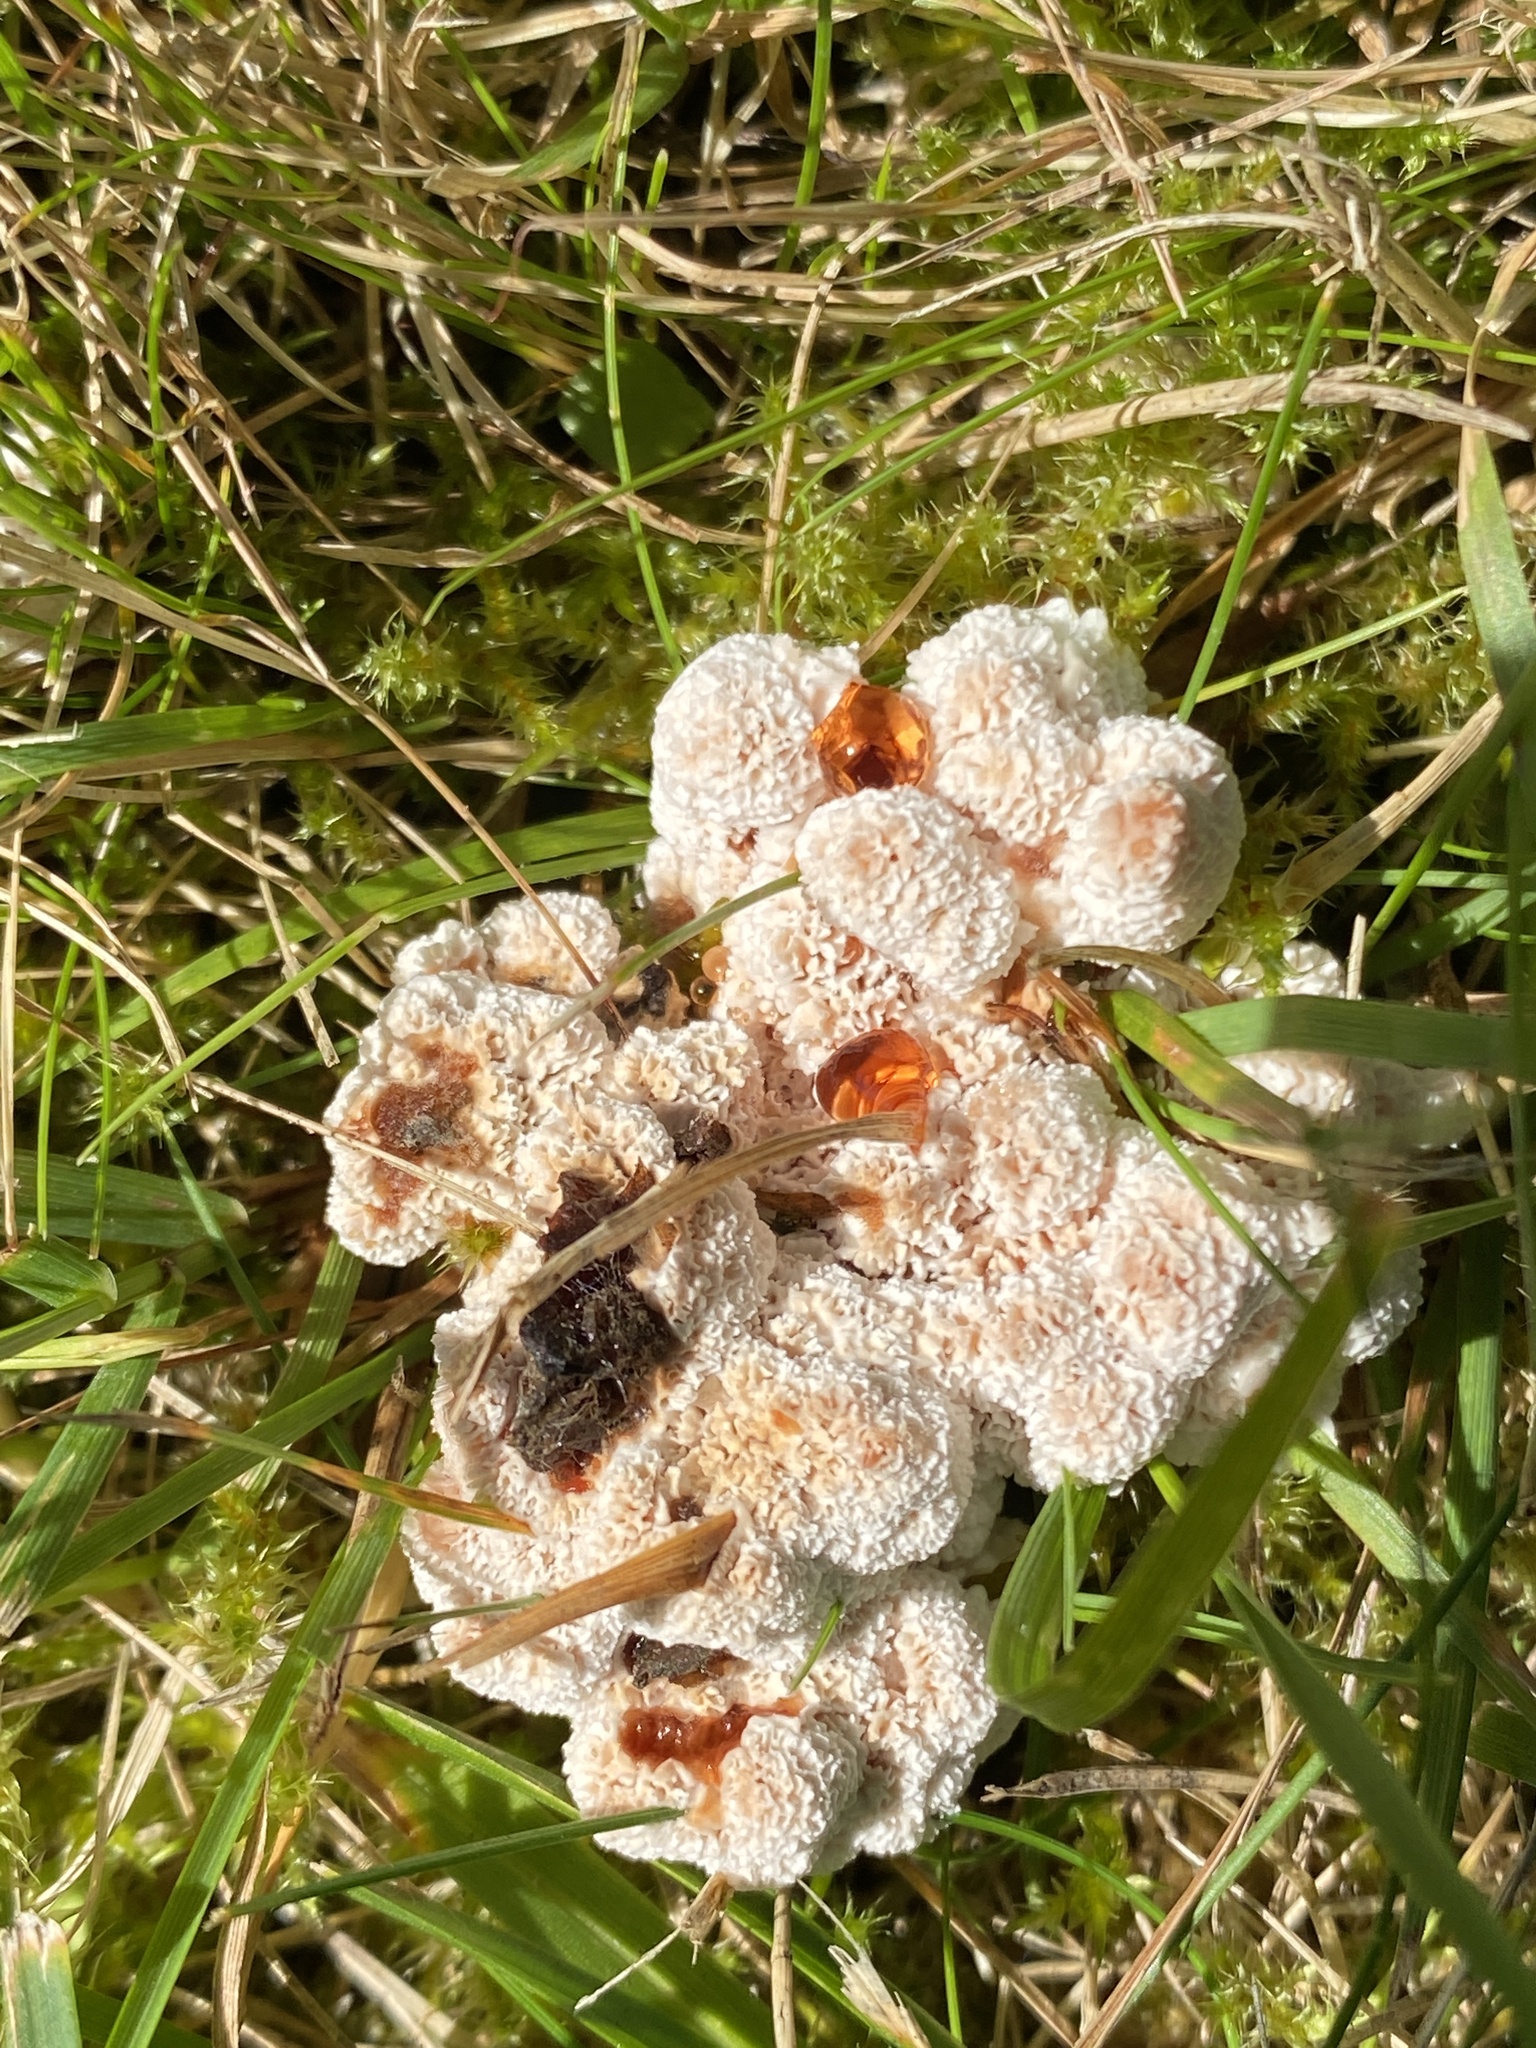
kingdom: Fungi
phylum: Basidiomycota
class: Agaricomycetes
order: Polyporales
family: Podoscyphaceae
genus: Abortiporus
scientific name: Abortiporus biennis
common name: Blushing rosette
